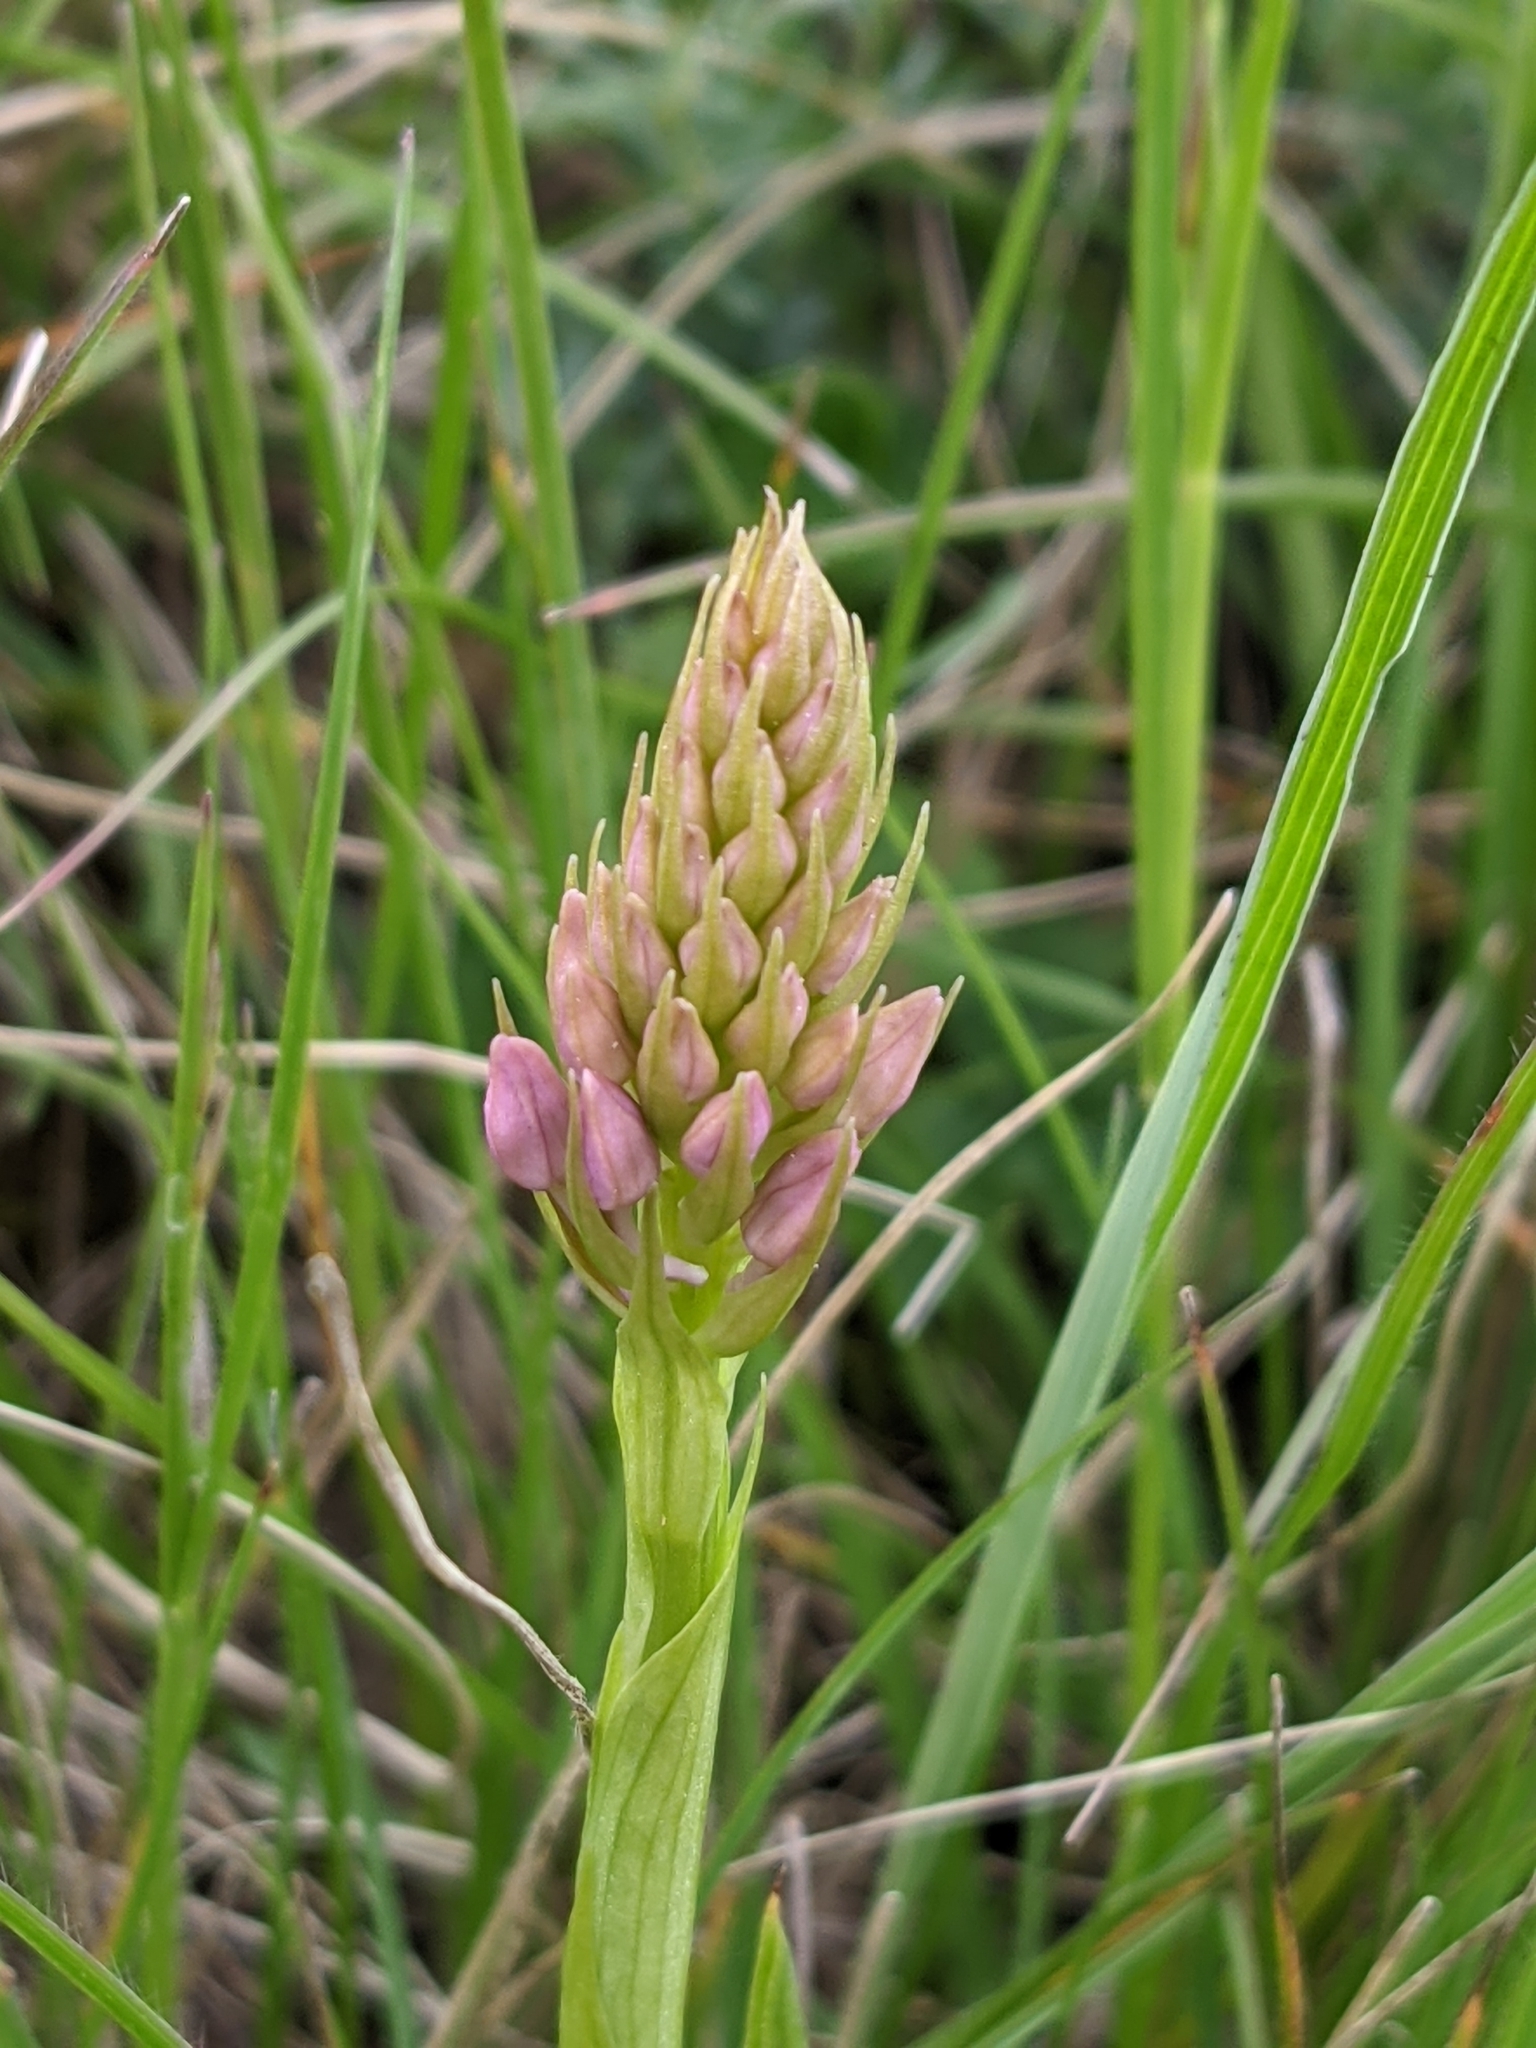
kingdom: Plantae
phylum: Tracheophyta
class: Liliopsida
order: Asparagales
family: Orchidaceae
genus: Anacamptis
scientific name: Anacamptis pyramidalis
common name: Pyramidal orchid
